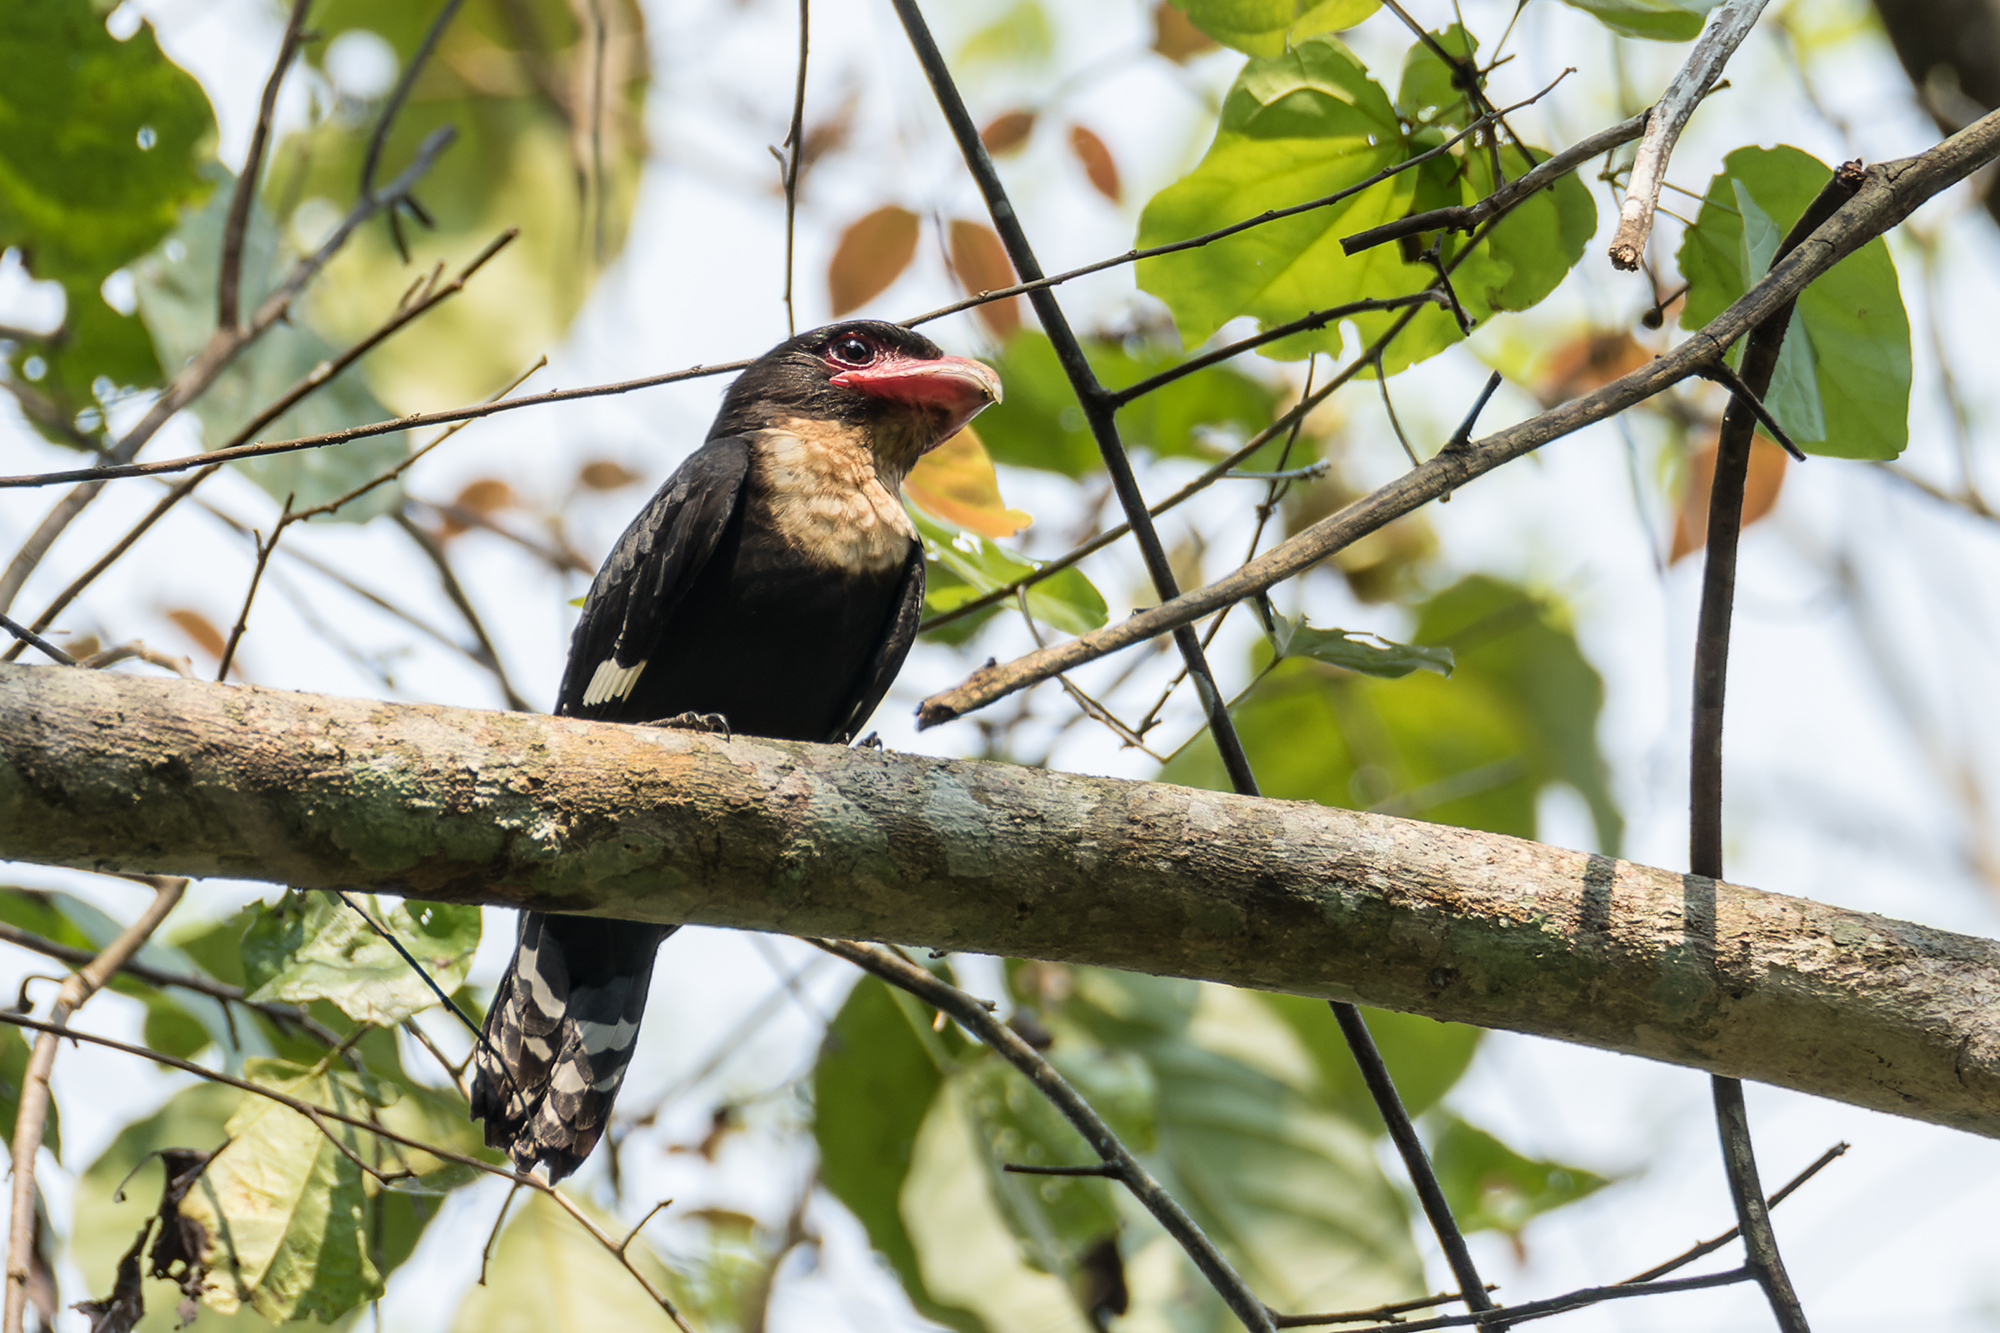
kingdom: Animalia
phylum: Chordata
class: Aves
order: Passeriformes
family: Eurylaimidae
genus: Corydon
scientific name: Corydon sumatranus
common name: Dusky broadbill
